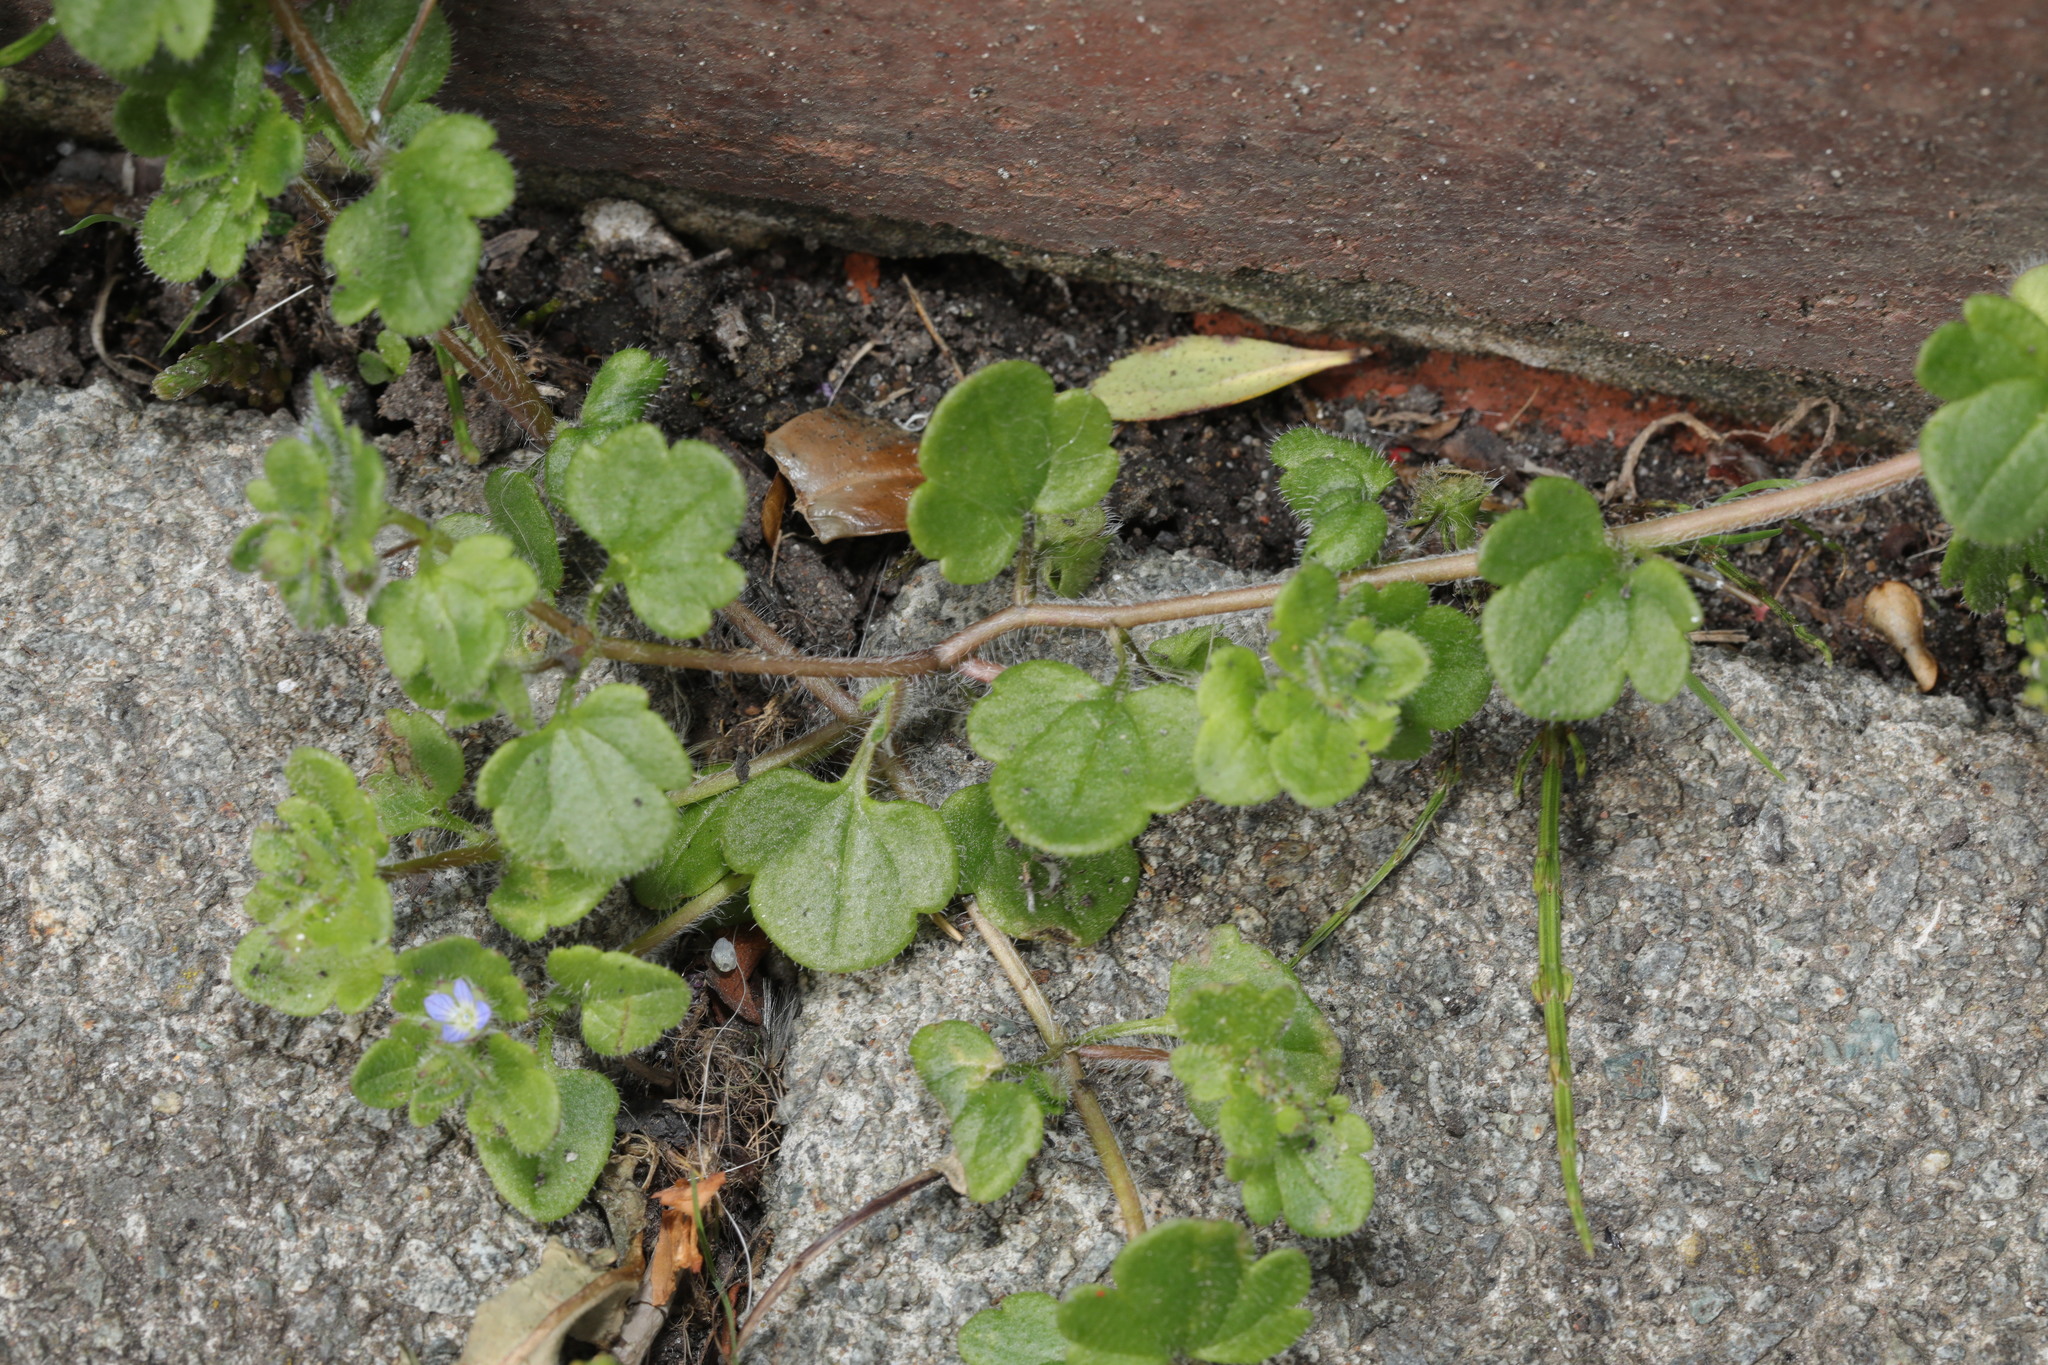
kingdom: Plantae
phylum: Tracheophyta
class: Magnoliopsida
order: Lamiales
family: Plantaginaceae
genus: Veronica
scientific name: Veronica hederifolia
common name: Ivy-leaved speedwell
